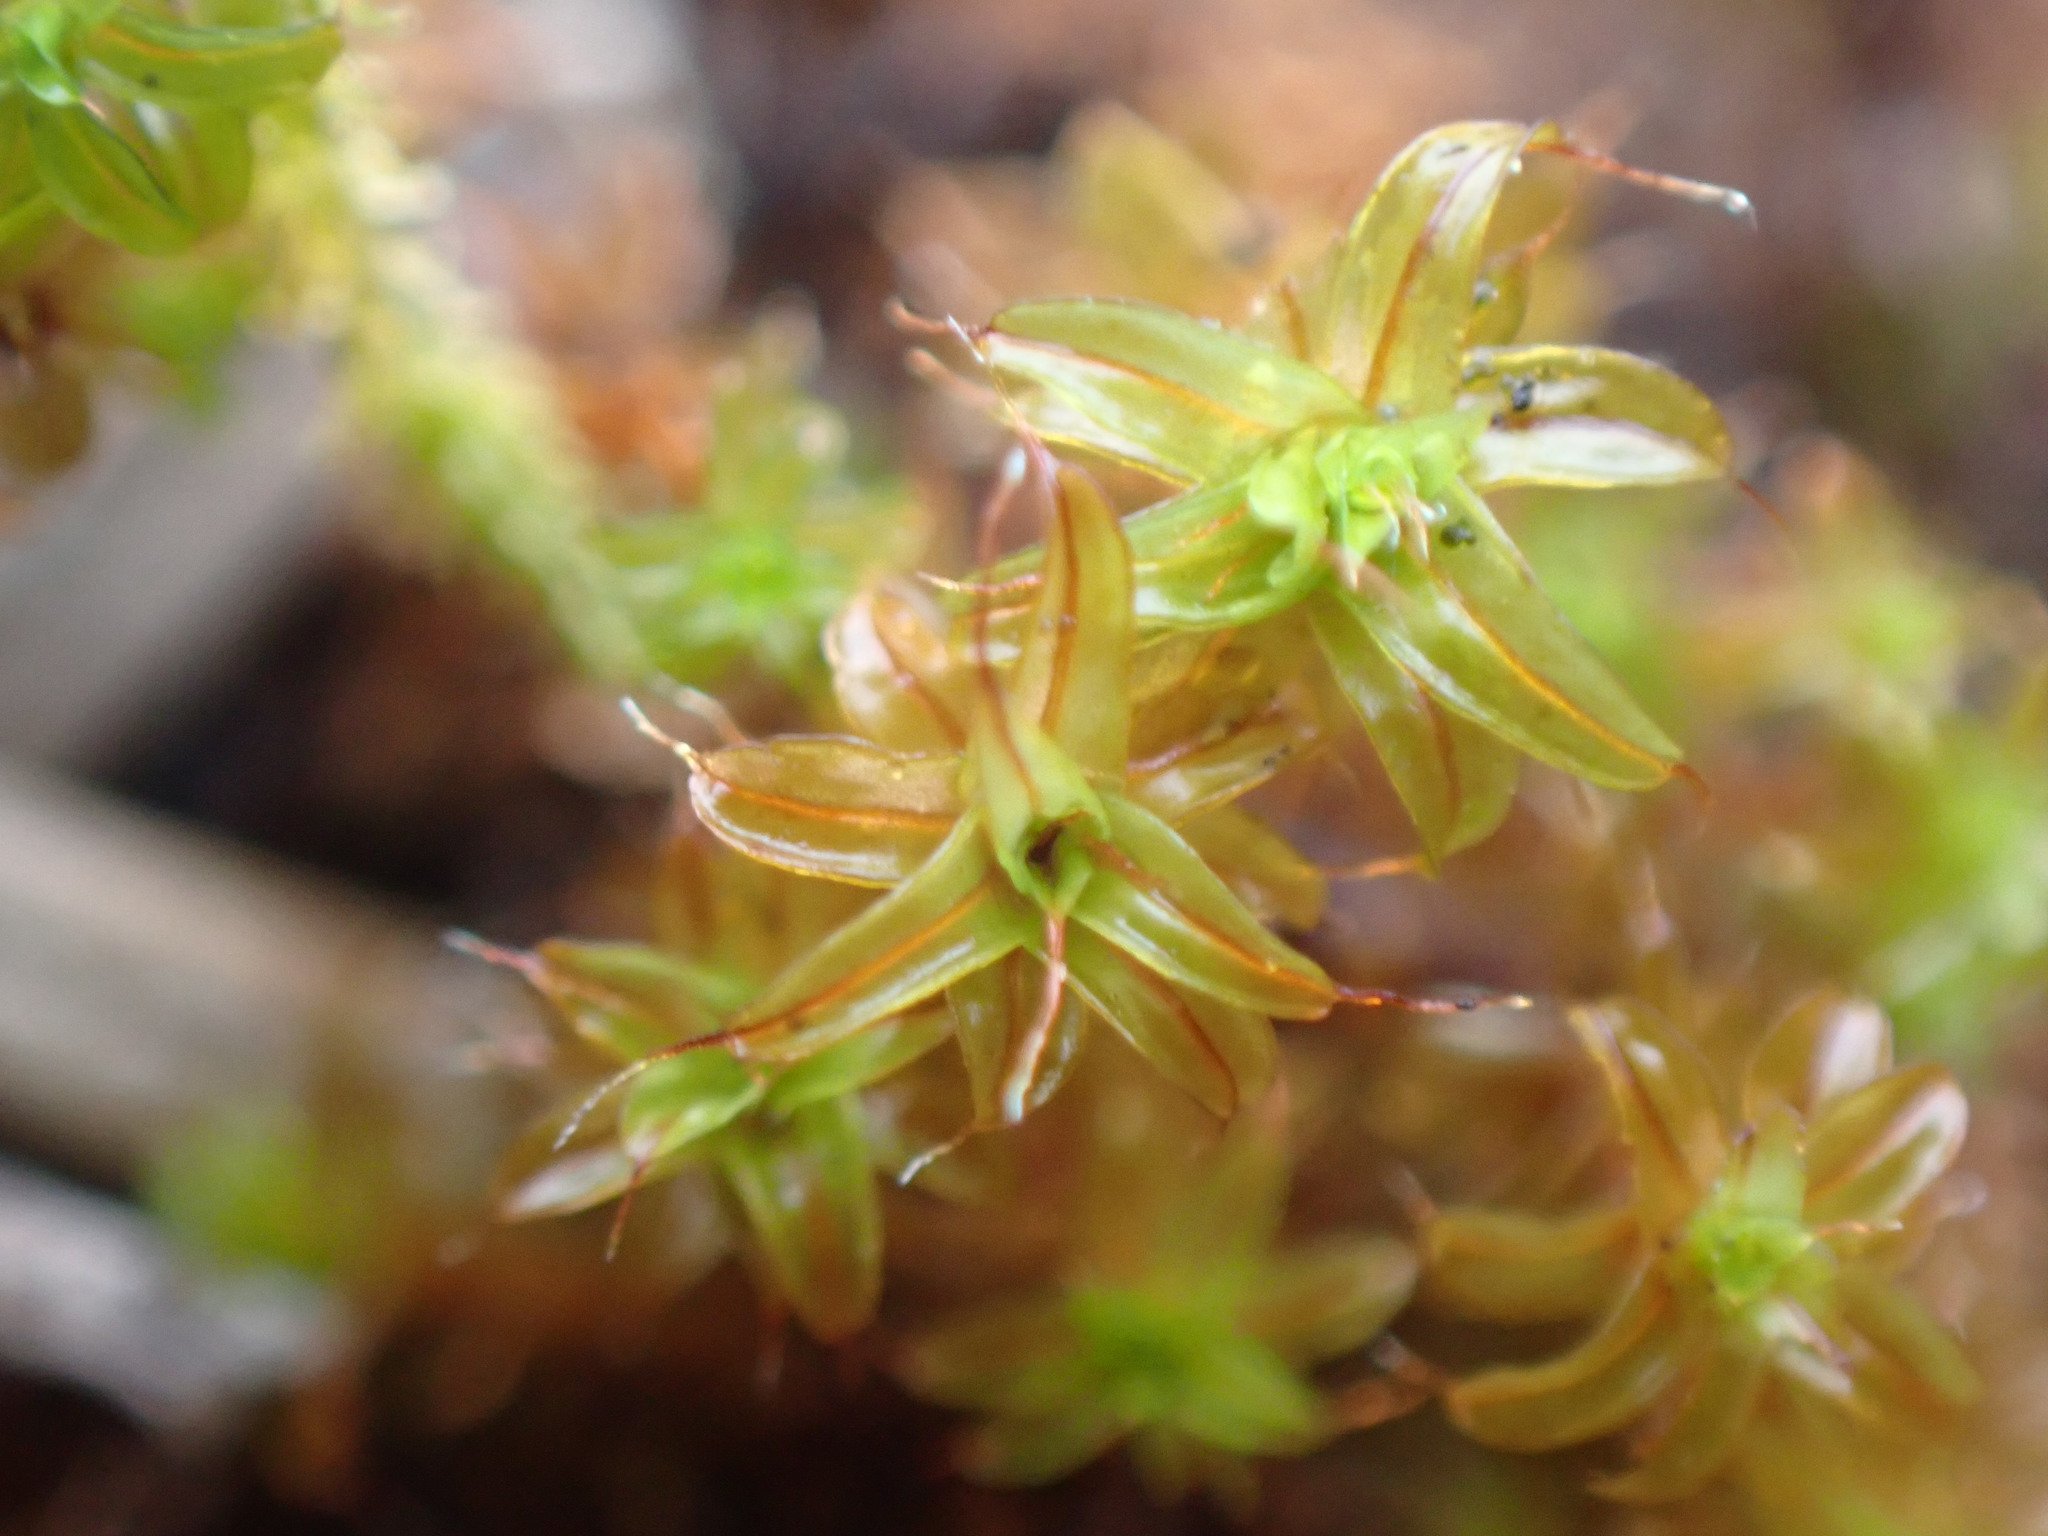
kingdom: Plantae
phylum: Bryophyta
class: Bryopsida
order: Pottiales
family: Pottiaceae
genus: Syntrichia
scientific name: Syntrichia norvegica
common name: Norway screw moss
